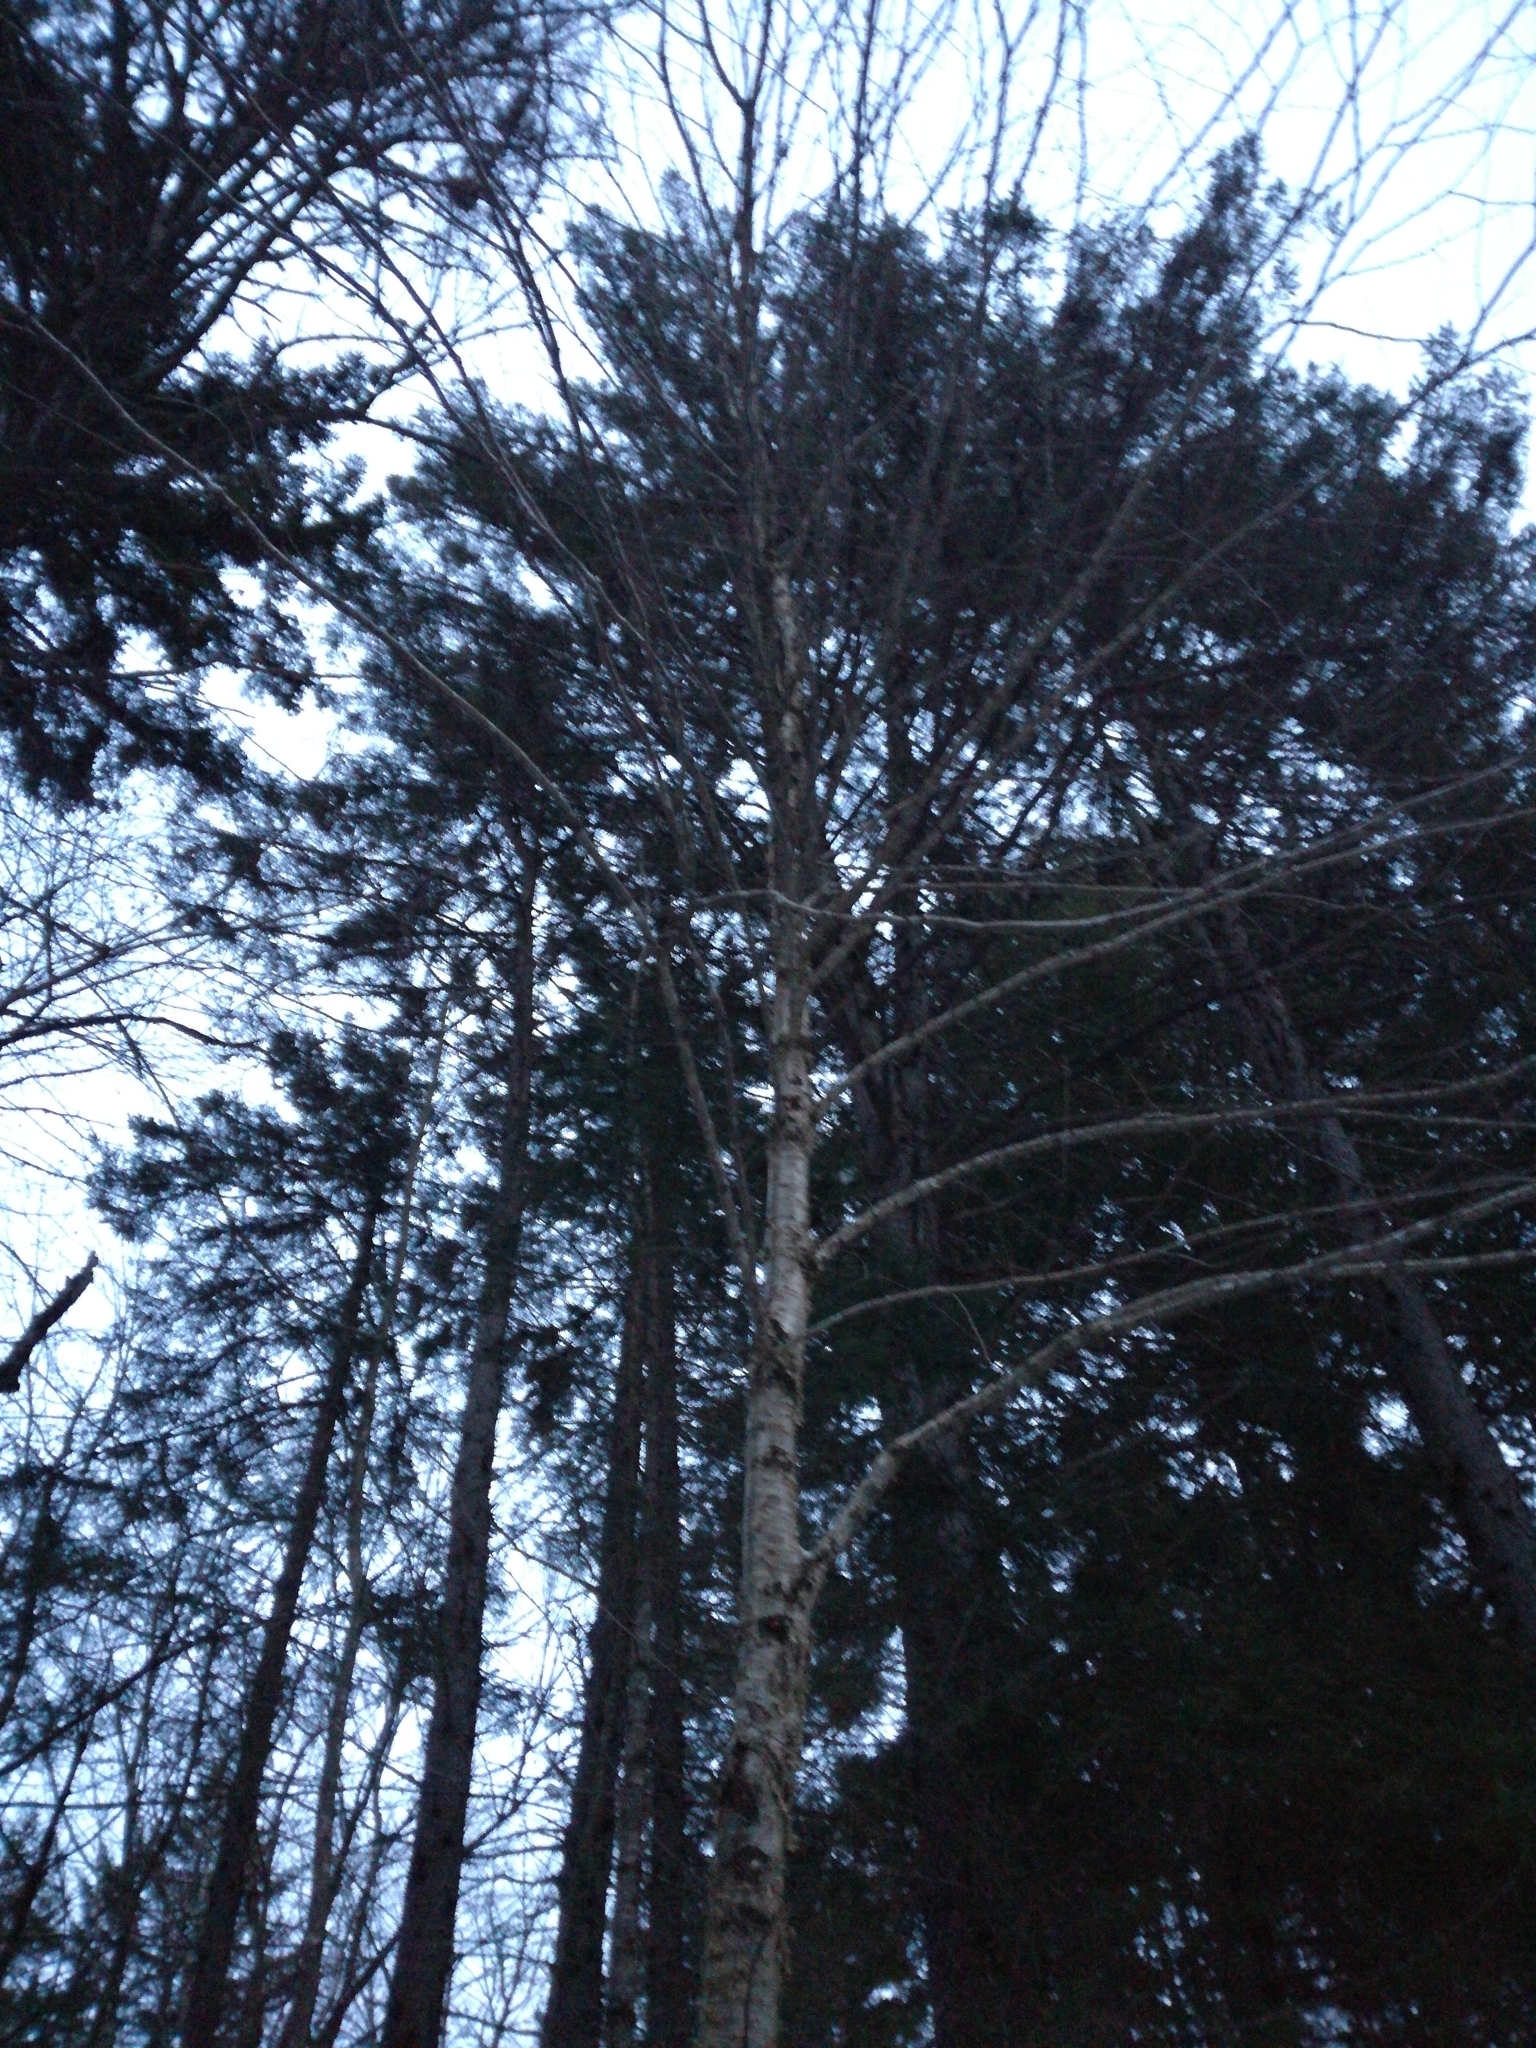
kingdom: Plantae
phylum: Tracheophyta
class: Magnoliopsida
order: Fagales
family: Betulaceae
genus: Betula
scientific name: Betula alleghaniensis
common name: Yellow birch
